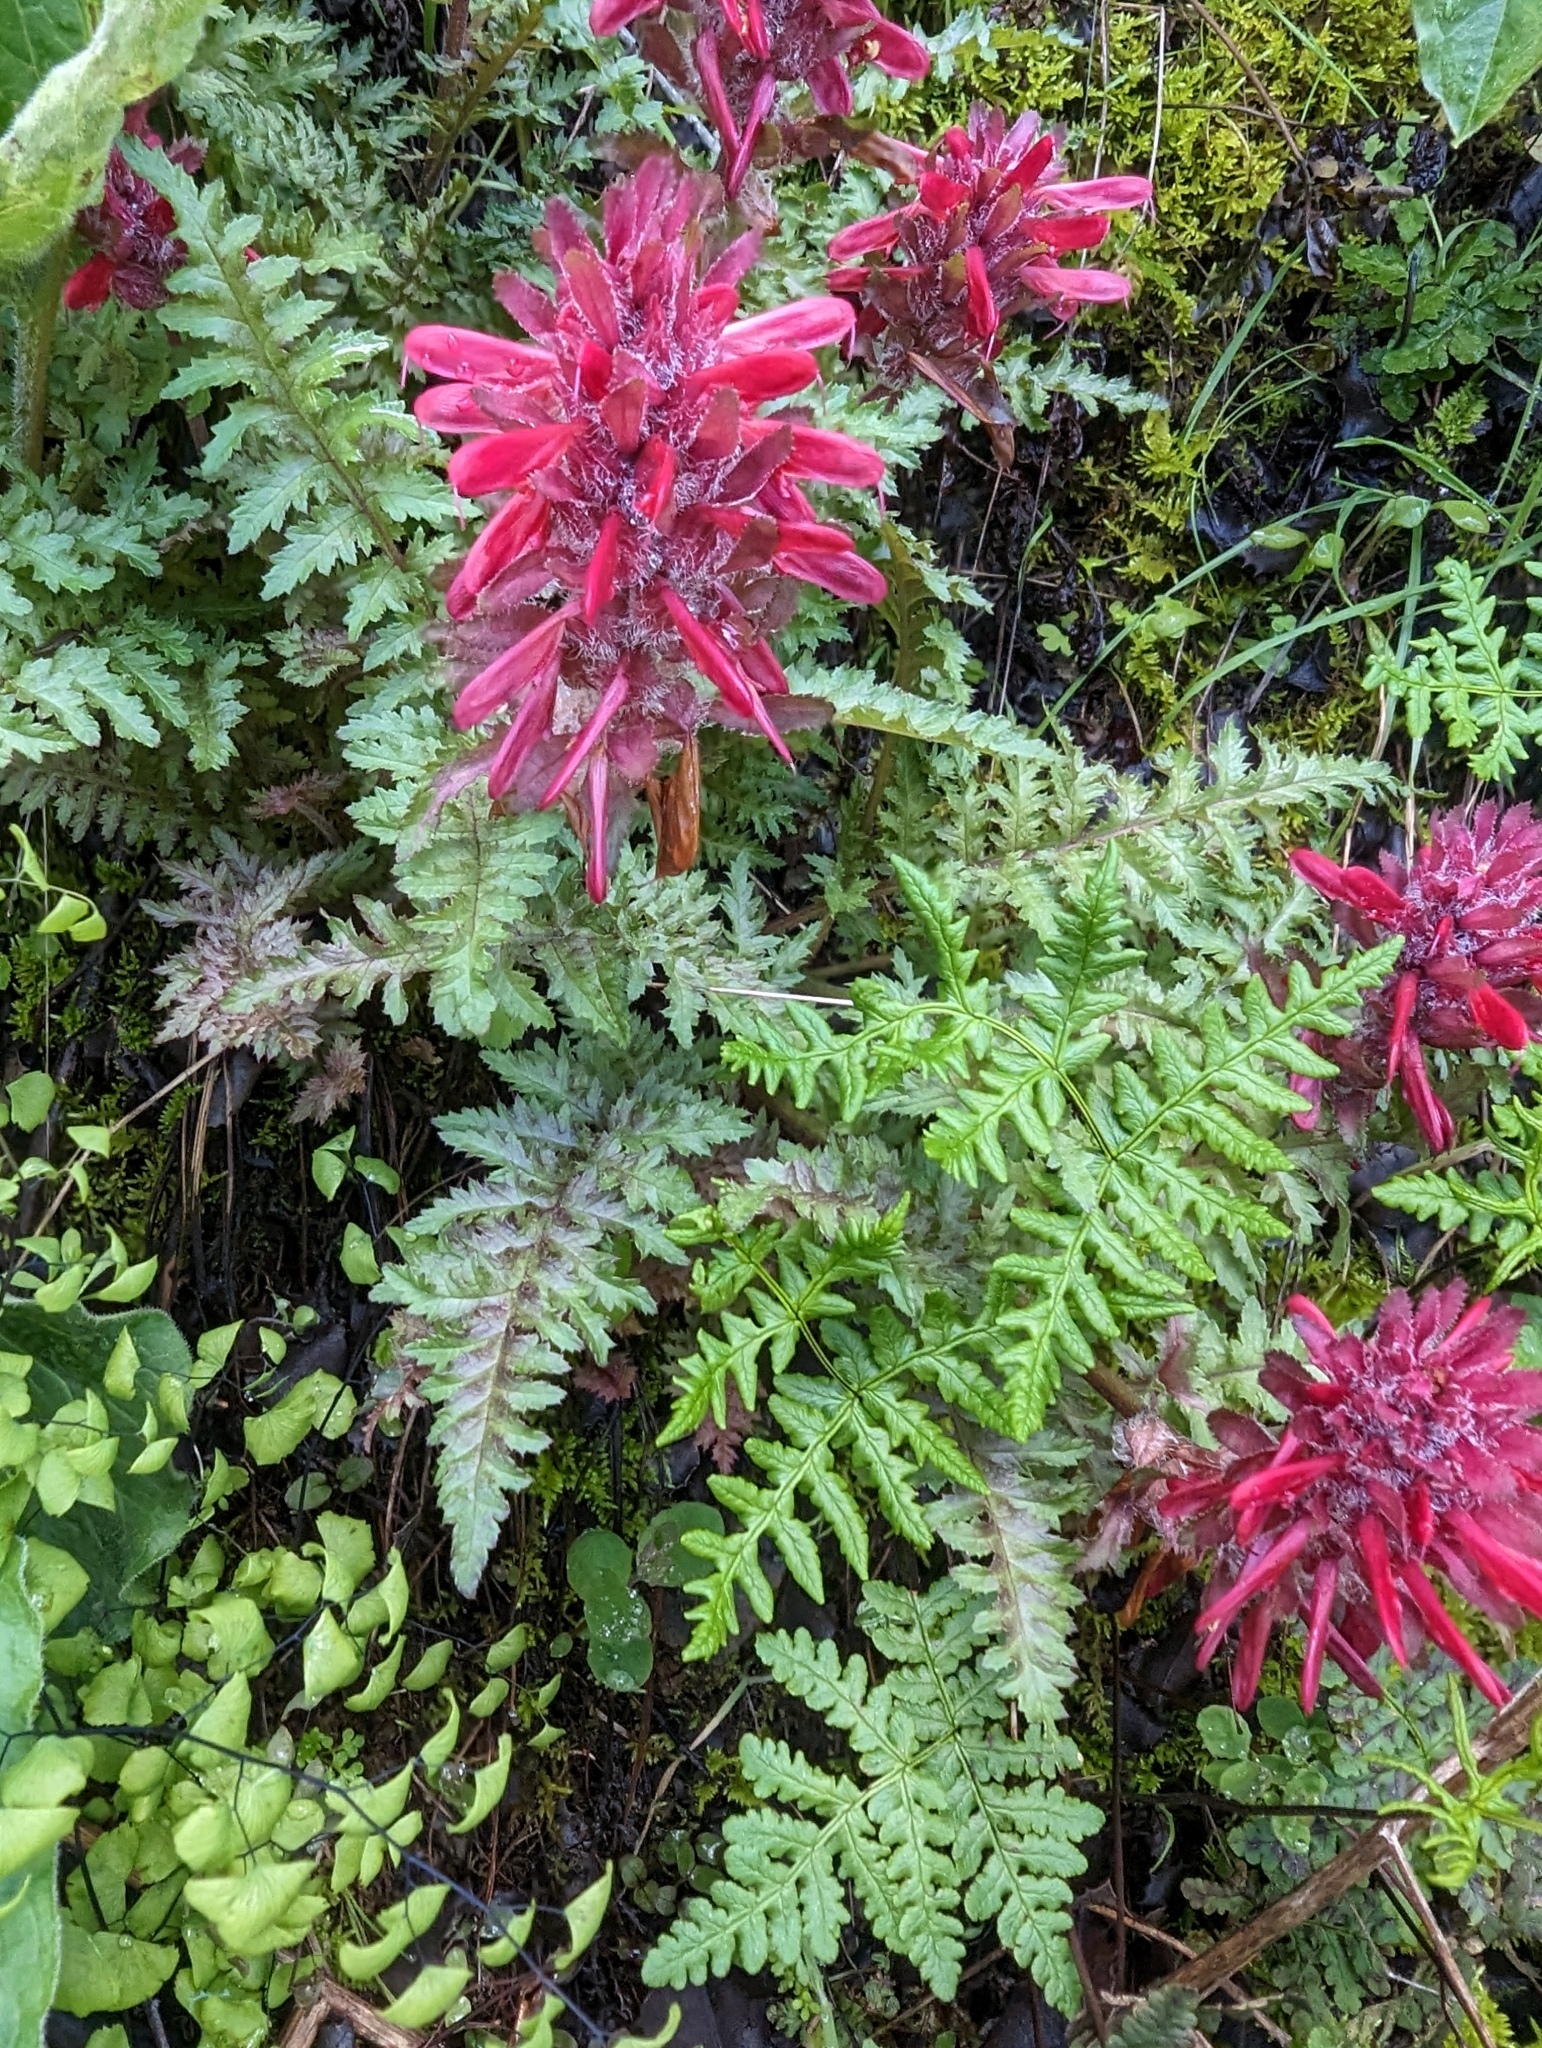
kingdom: Plantae
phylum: Tracheophyta
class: Magnoliopsida
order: Lamiales
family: Orobanchaceae
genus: Pedicularis
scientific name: Pedicularis densiflora
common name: Indian warrior
